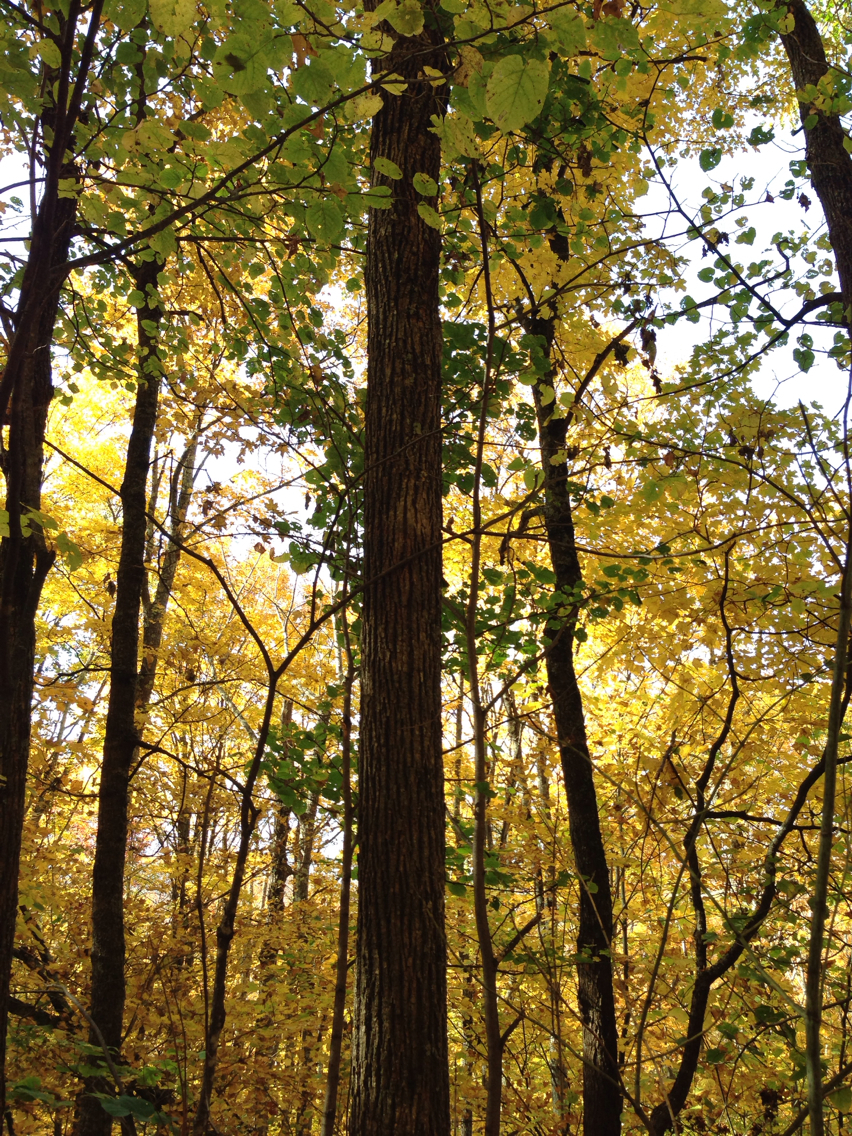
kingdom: Plantae
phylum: Tracheophyta
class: Magnoliopsida
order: Malvales
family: Malvaceae
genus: Tilia
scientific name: Tilia americana
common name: Basswood
